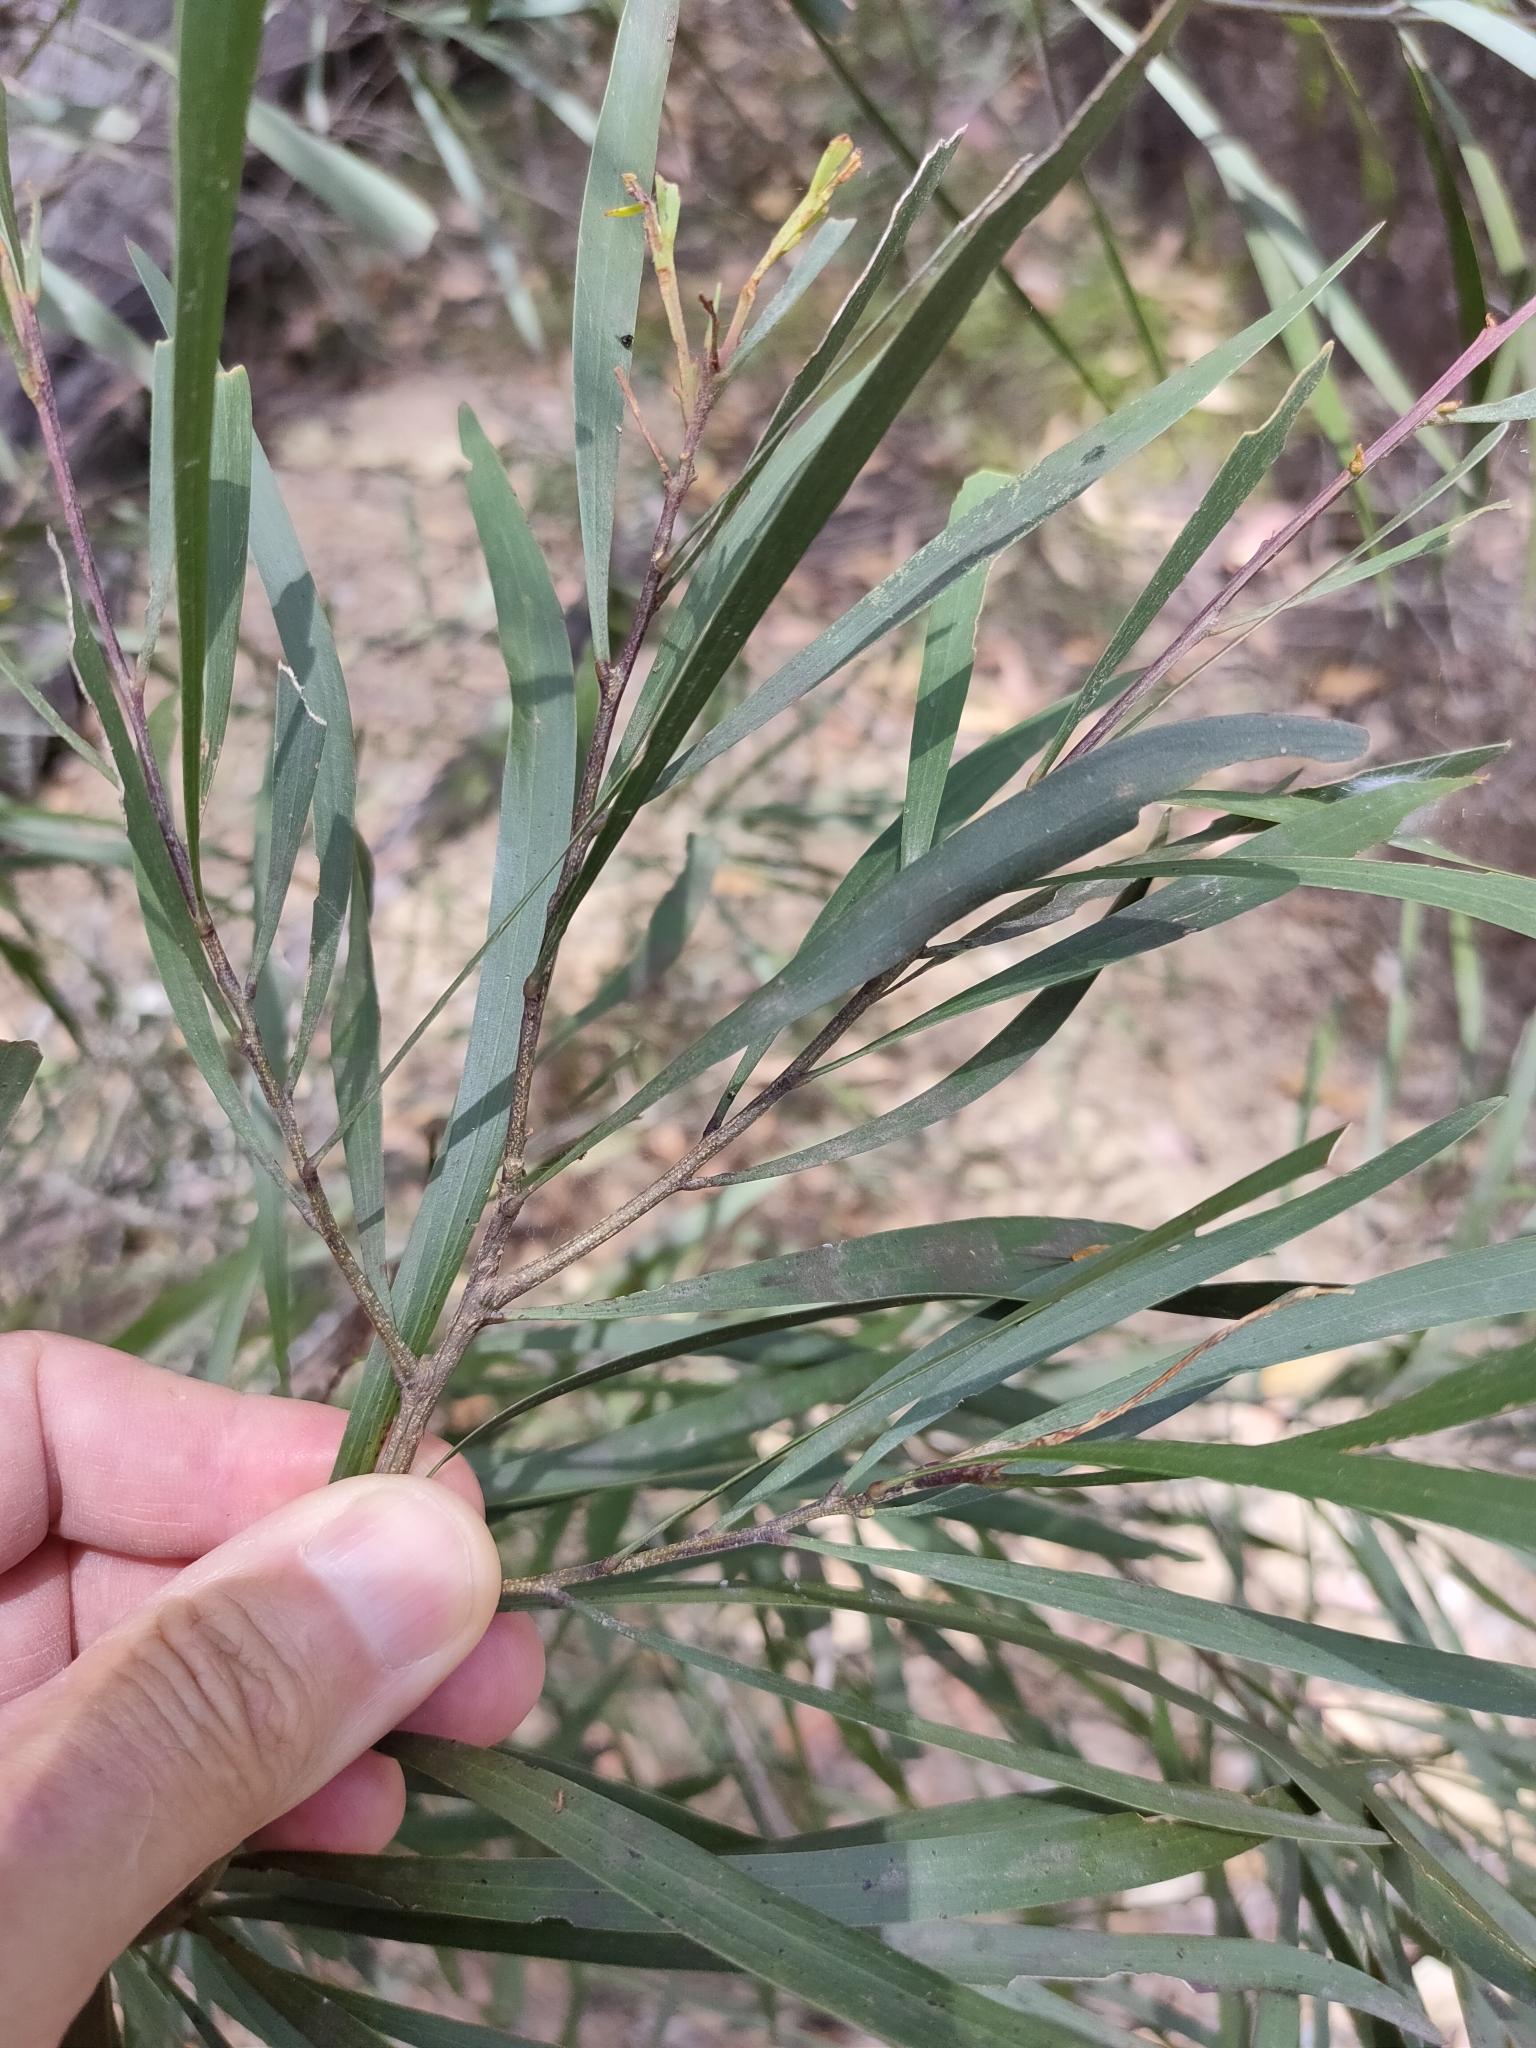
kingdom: Plantae
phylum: Tracheophyta
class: Magnoliopsida
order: Fabales
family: Fabaceae
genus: Acacia
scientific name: Acacia maidenii
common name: Maiden's wattle
